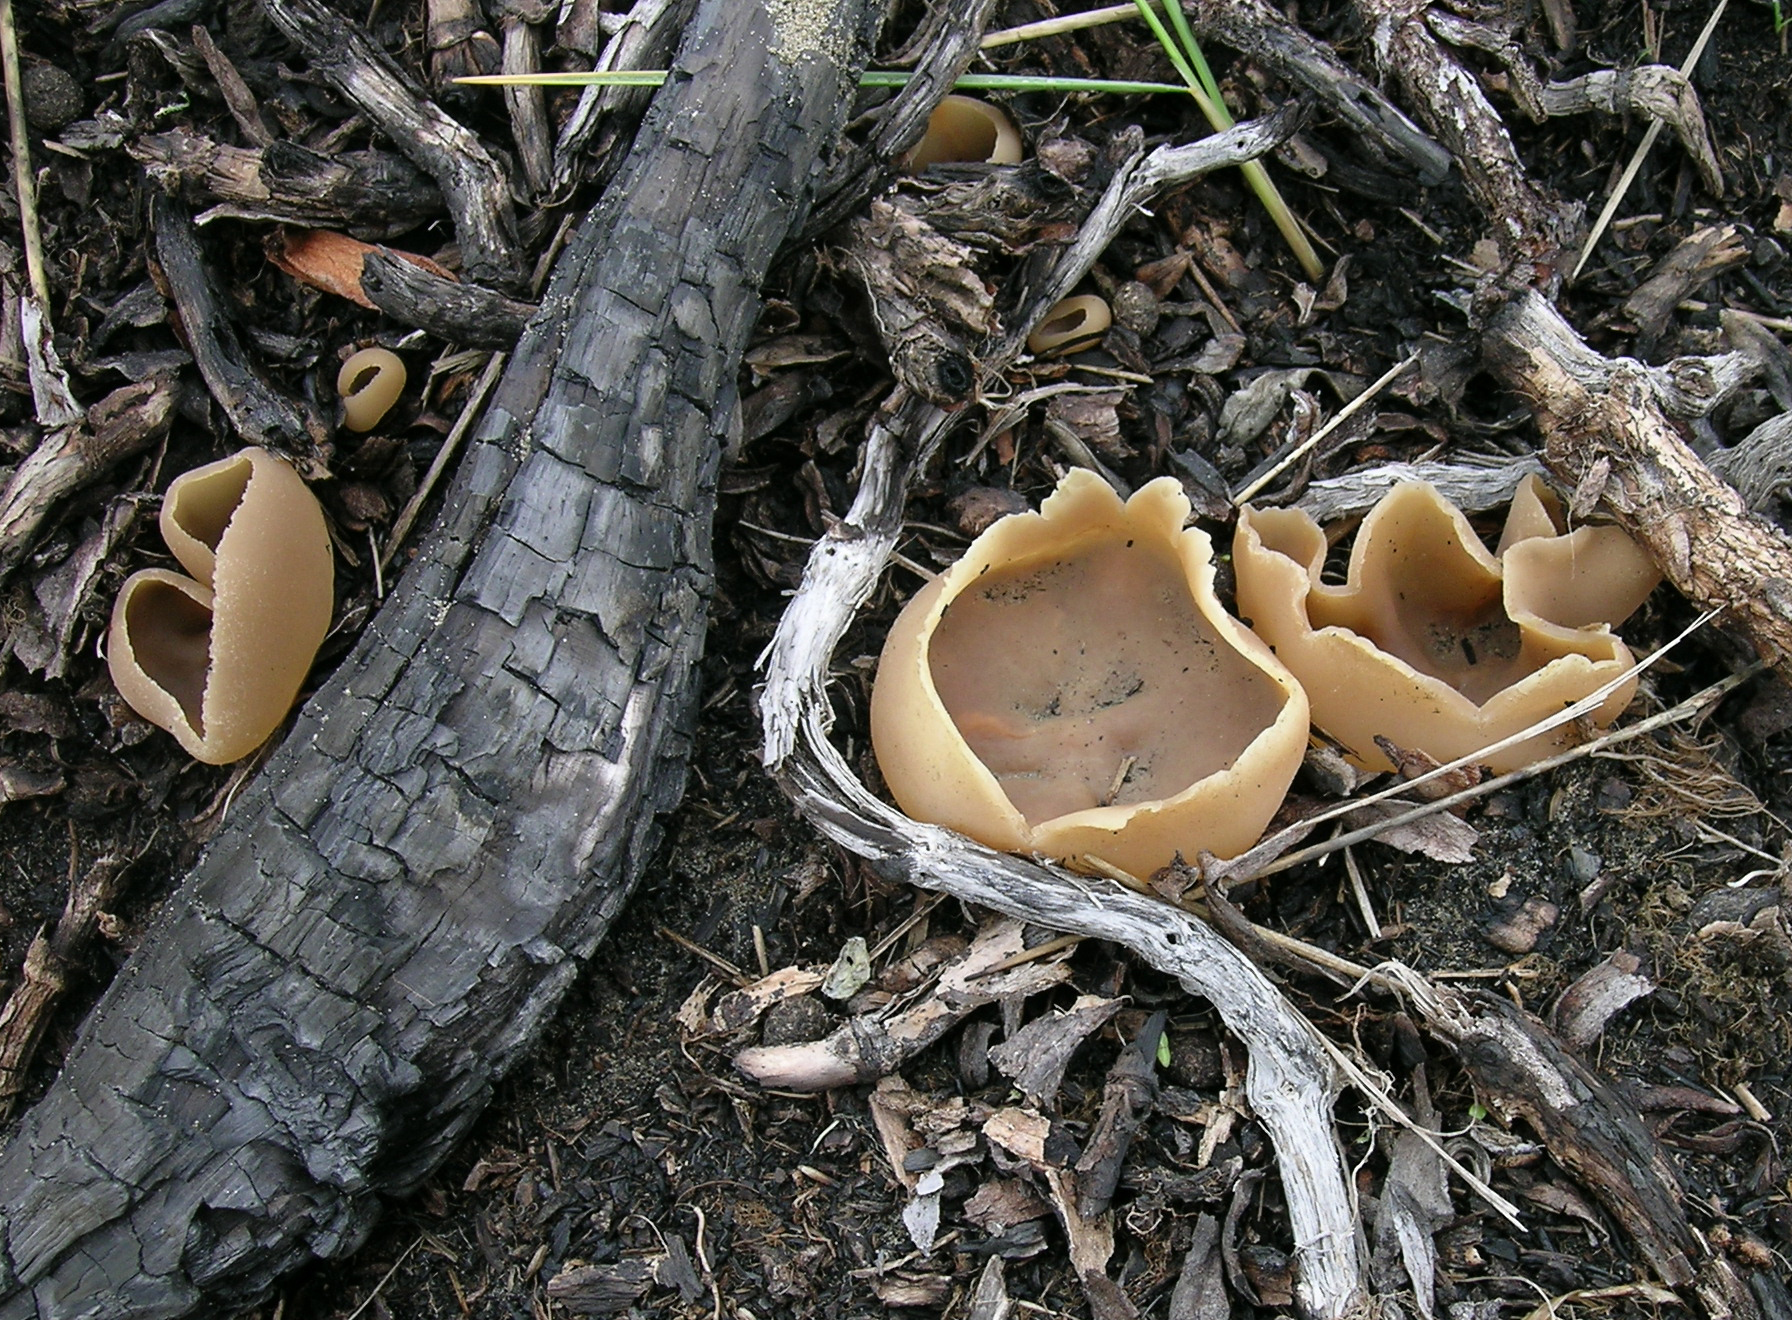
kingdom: Fungi
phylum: Ascomycota
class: Pezizomycetes
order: Pezizales
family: Pezizaceae
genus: Peziza
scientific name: Peziza varia
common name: Layered cup
